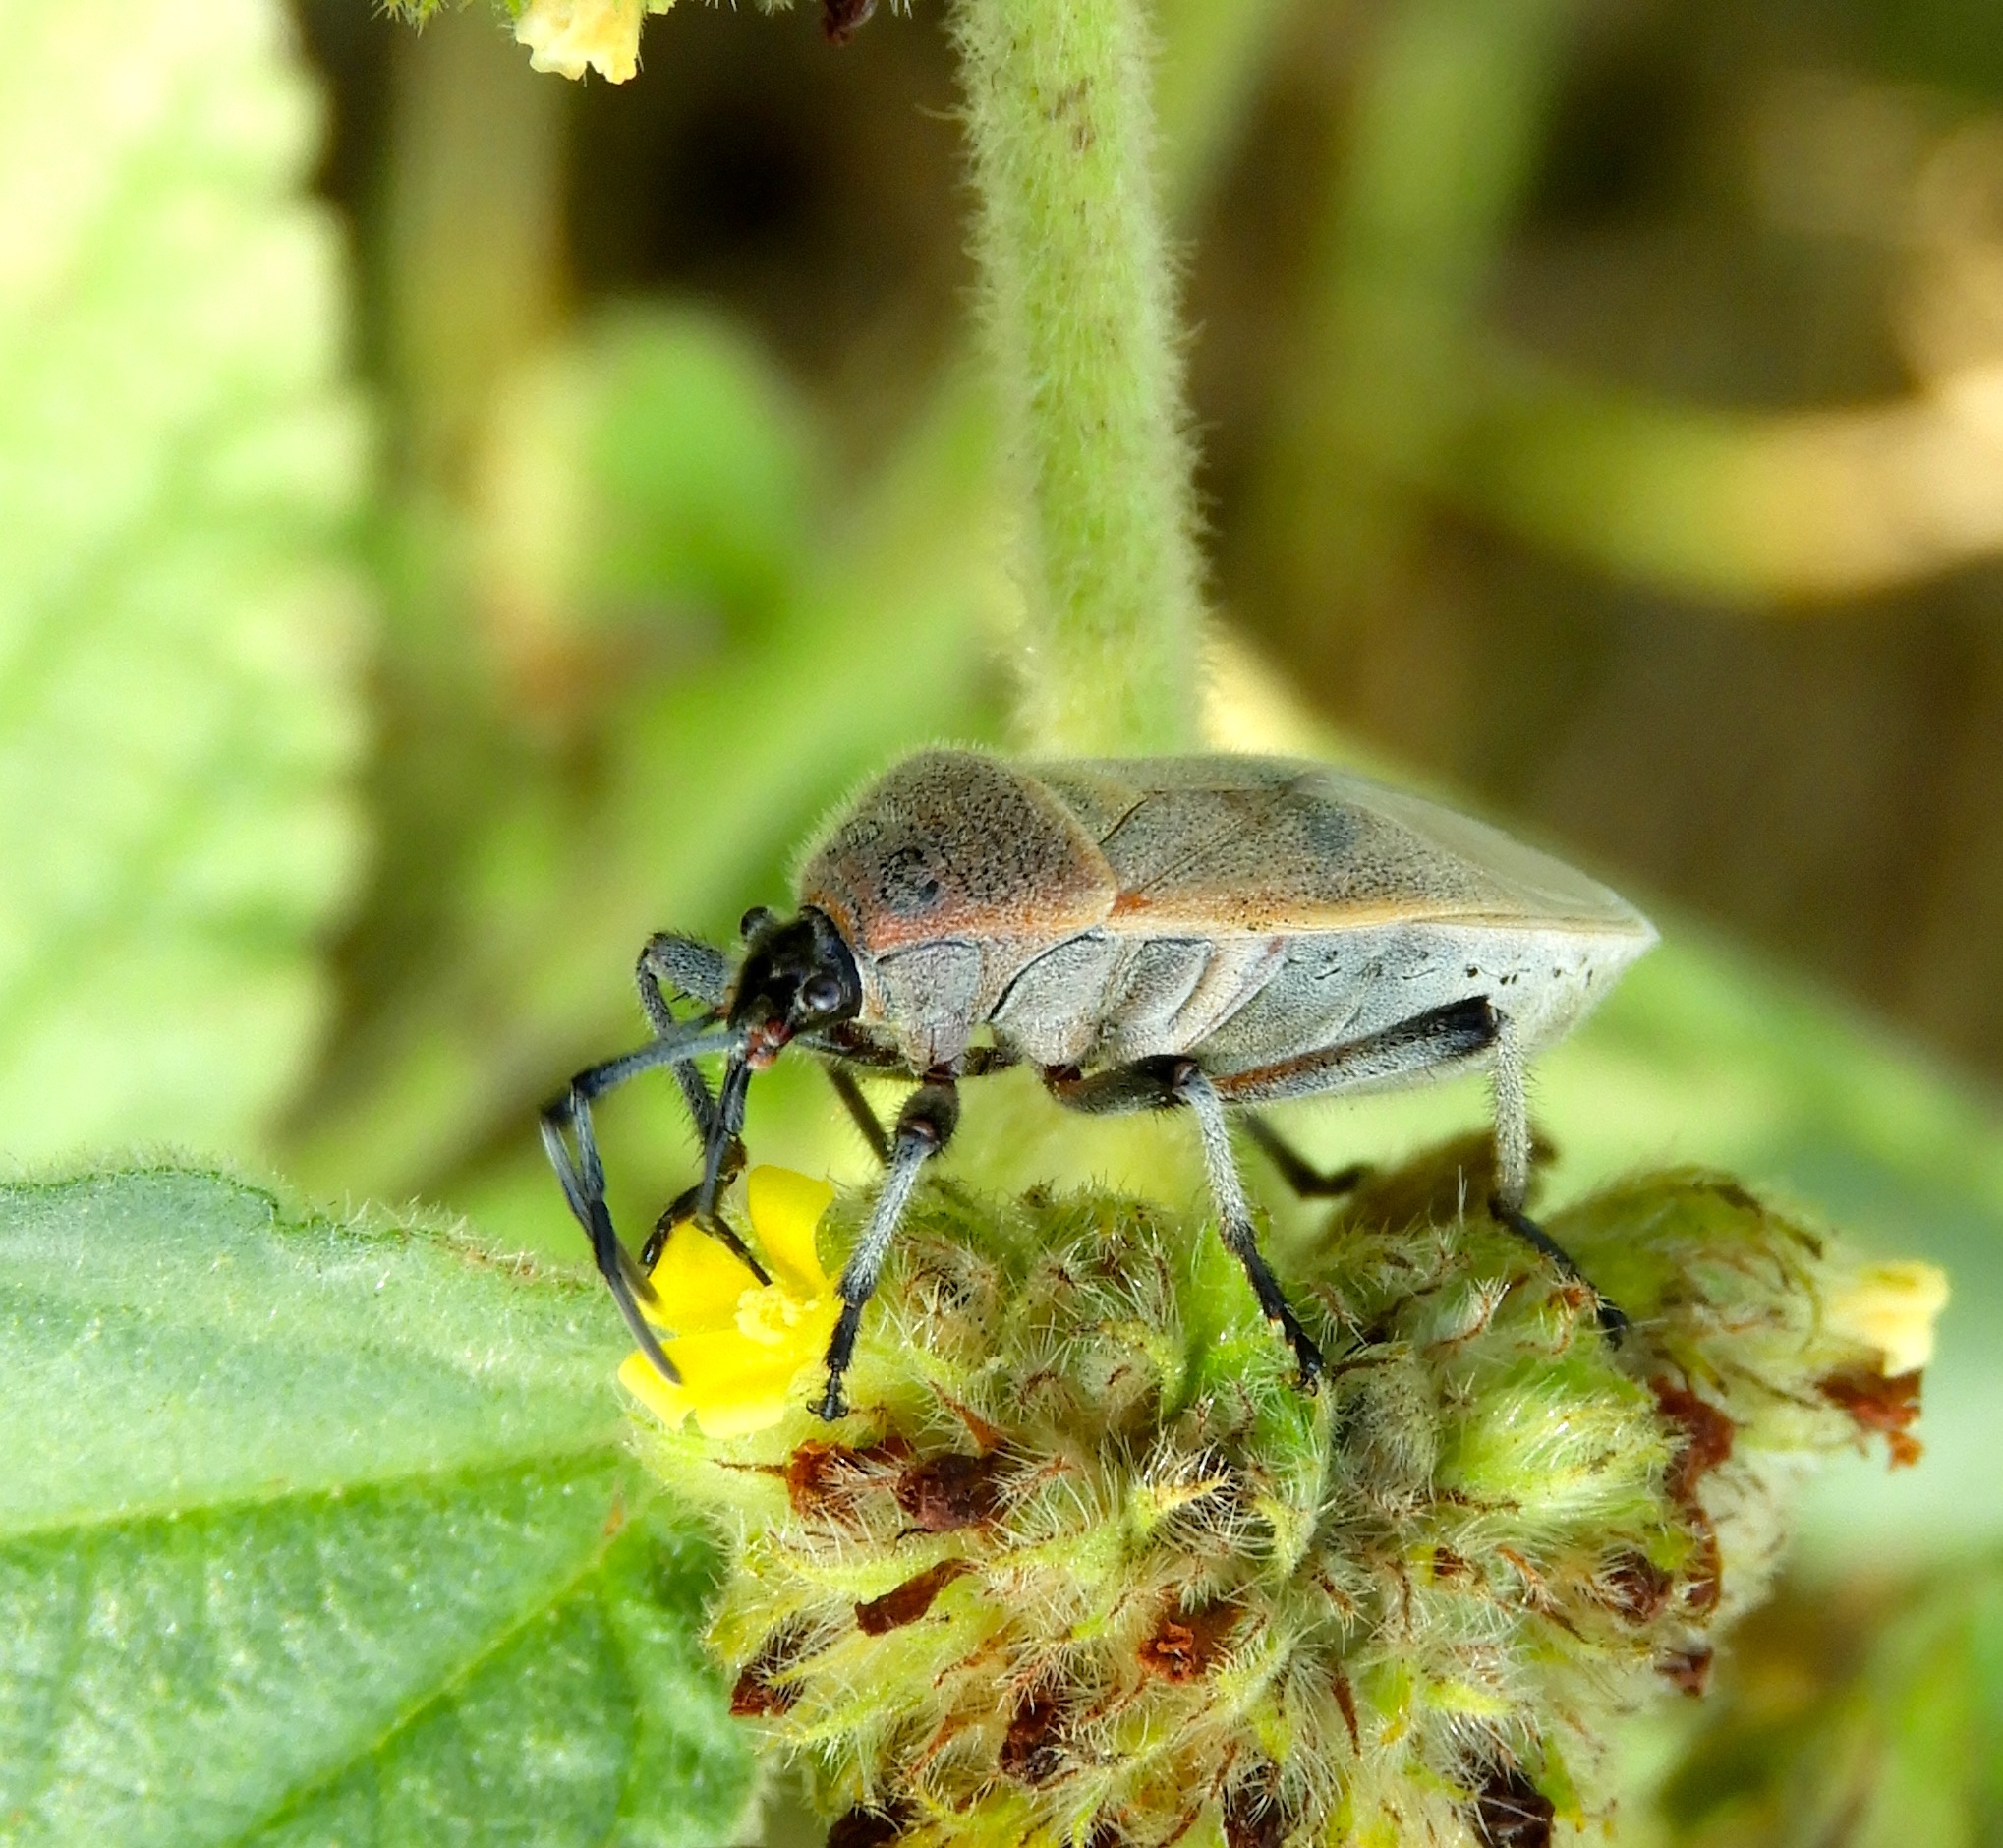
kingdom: Animalia
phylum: Arthropoda
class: Insecta
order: Hemiptera
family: Largidae
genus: Largus
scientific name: Largus
